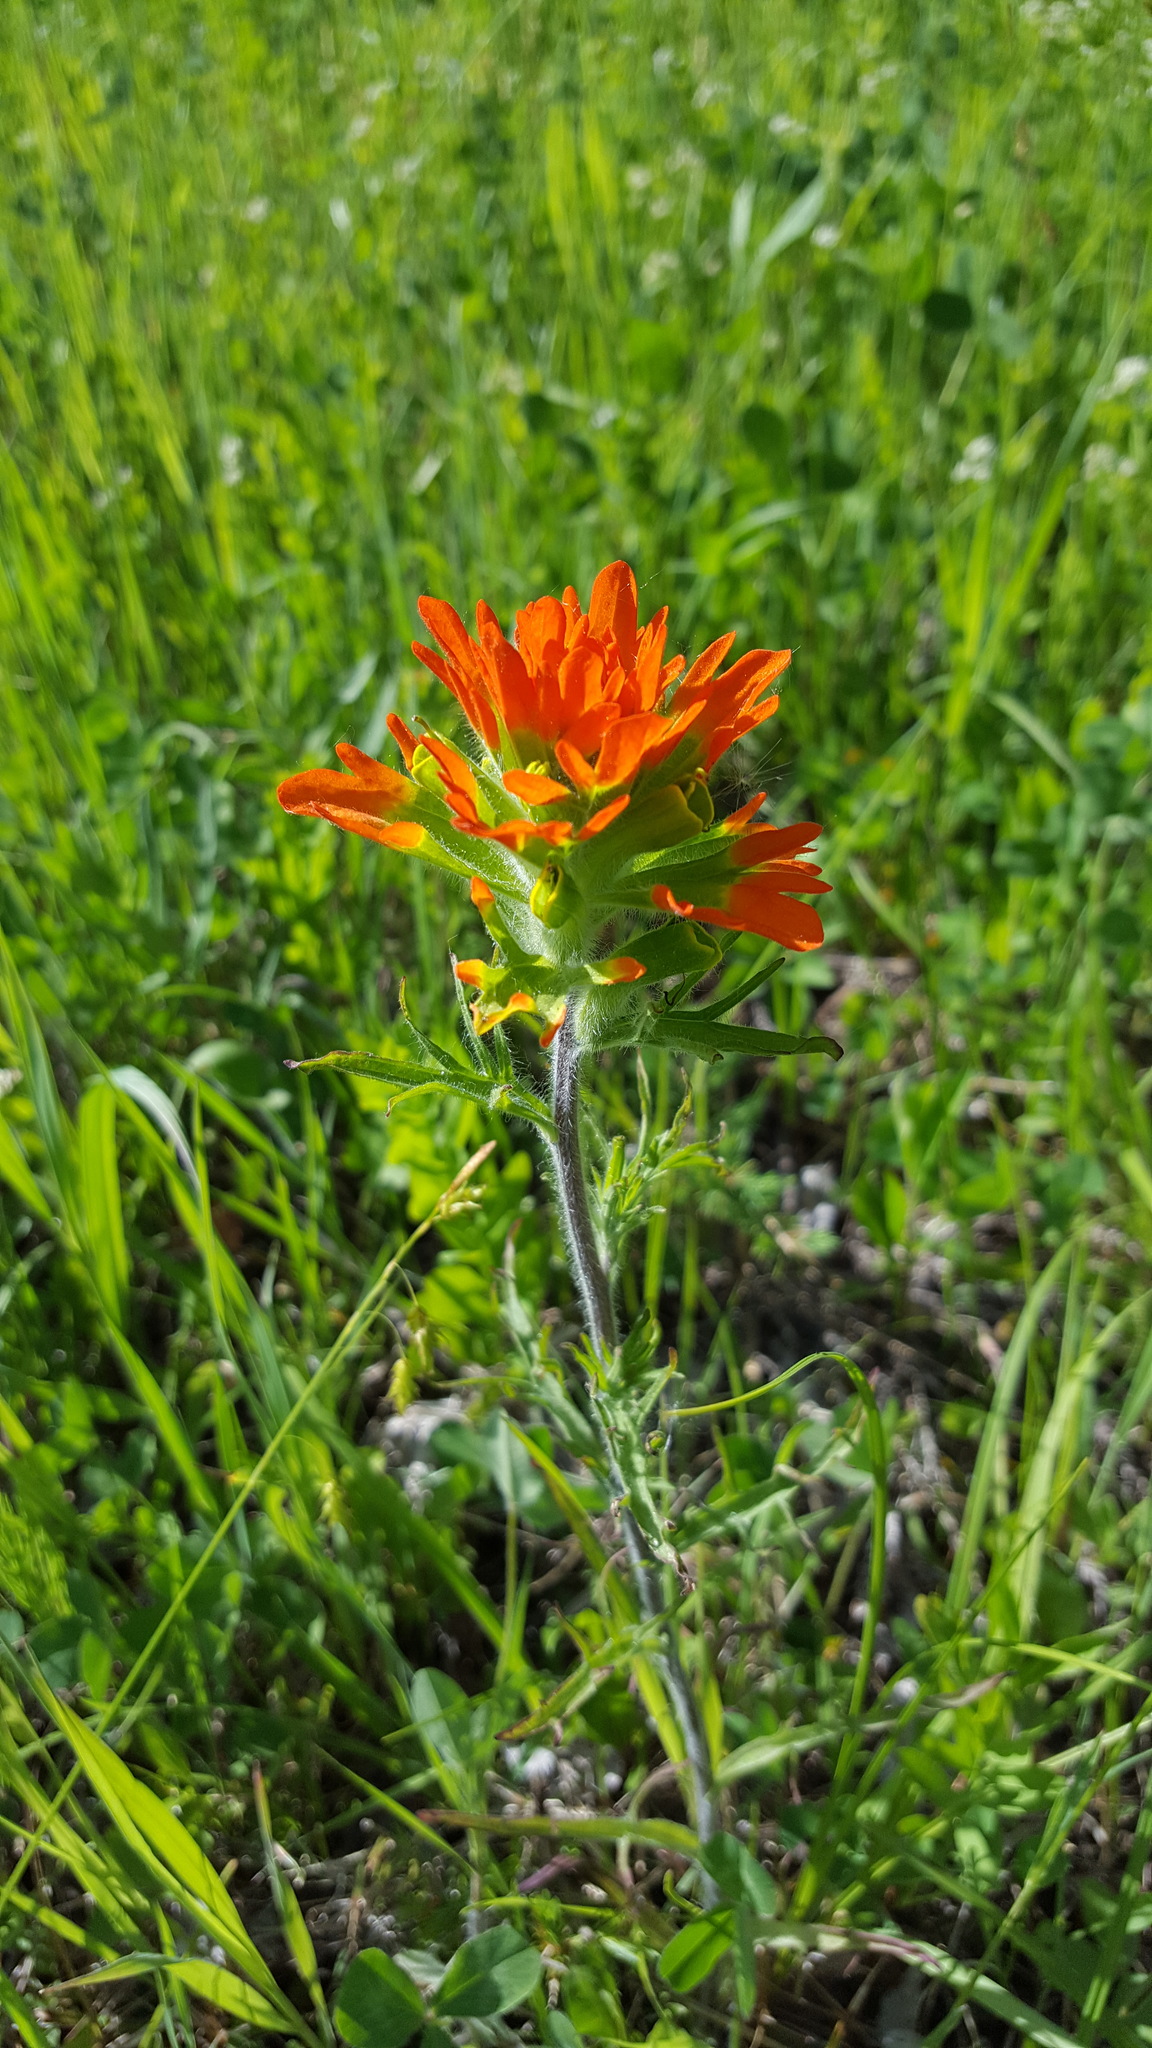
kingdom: Plantae
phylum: Tracheophyta
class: Magnoliopsida
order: Lamiales
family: Orobanchaceae
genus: Castilleja
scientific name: Castilleja coccinea
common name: Scarlet paintbrush
